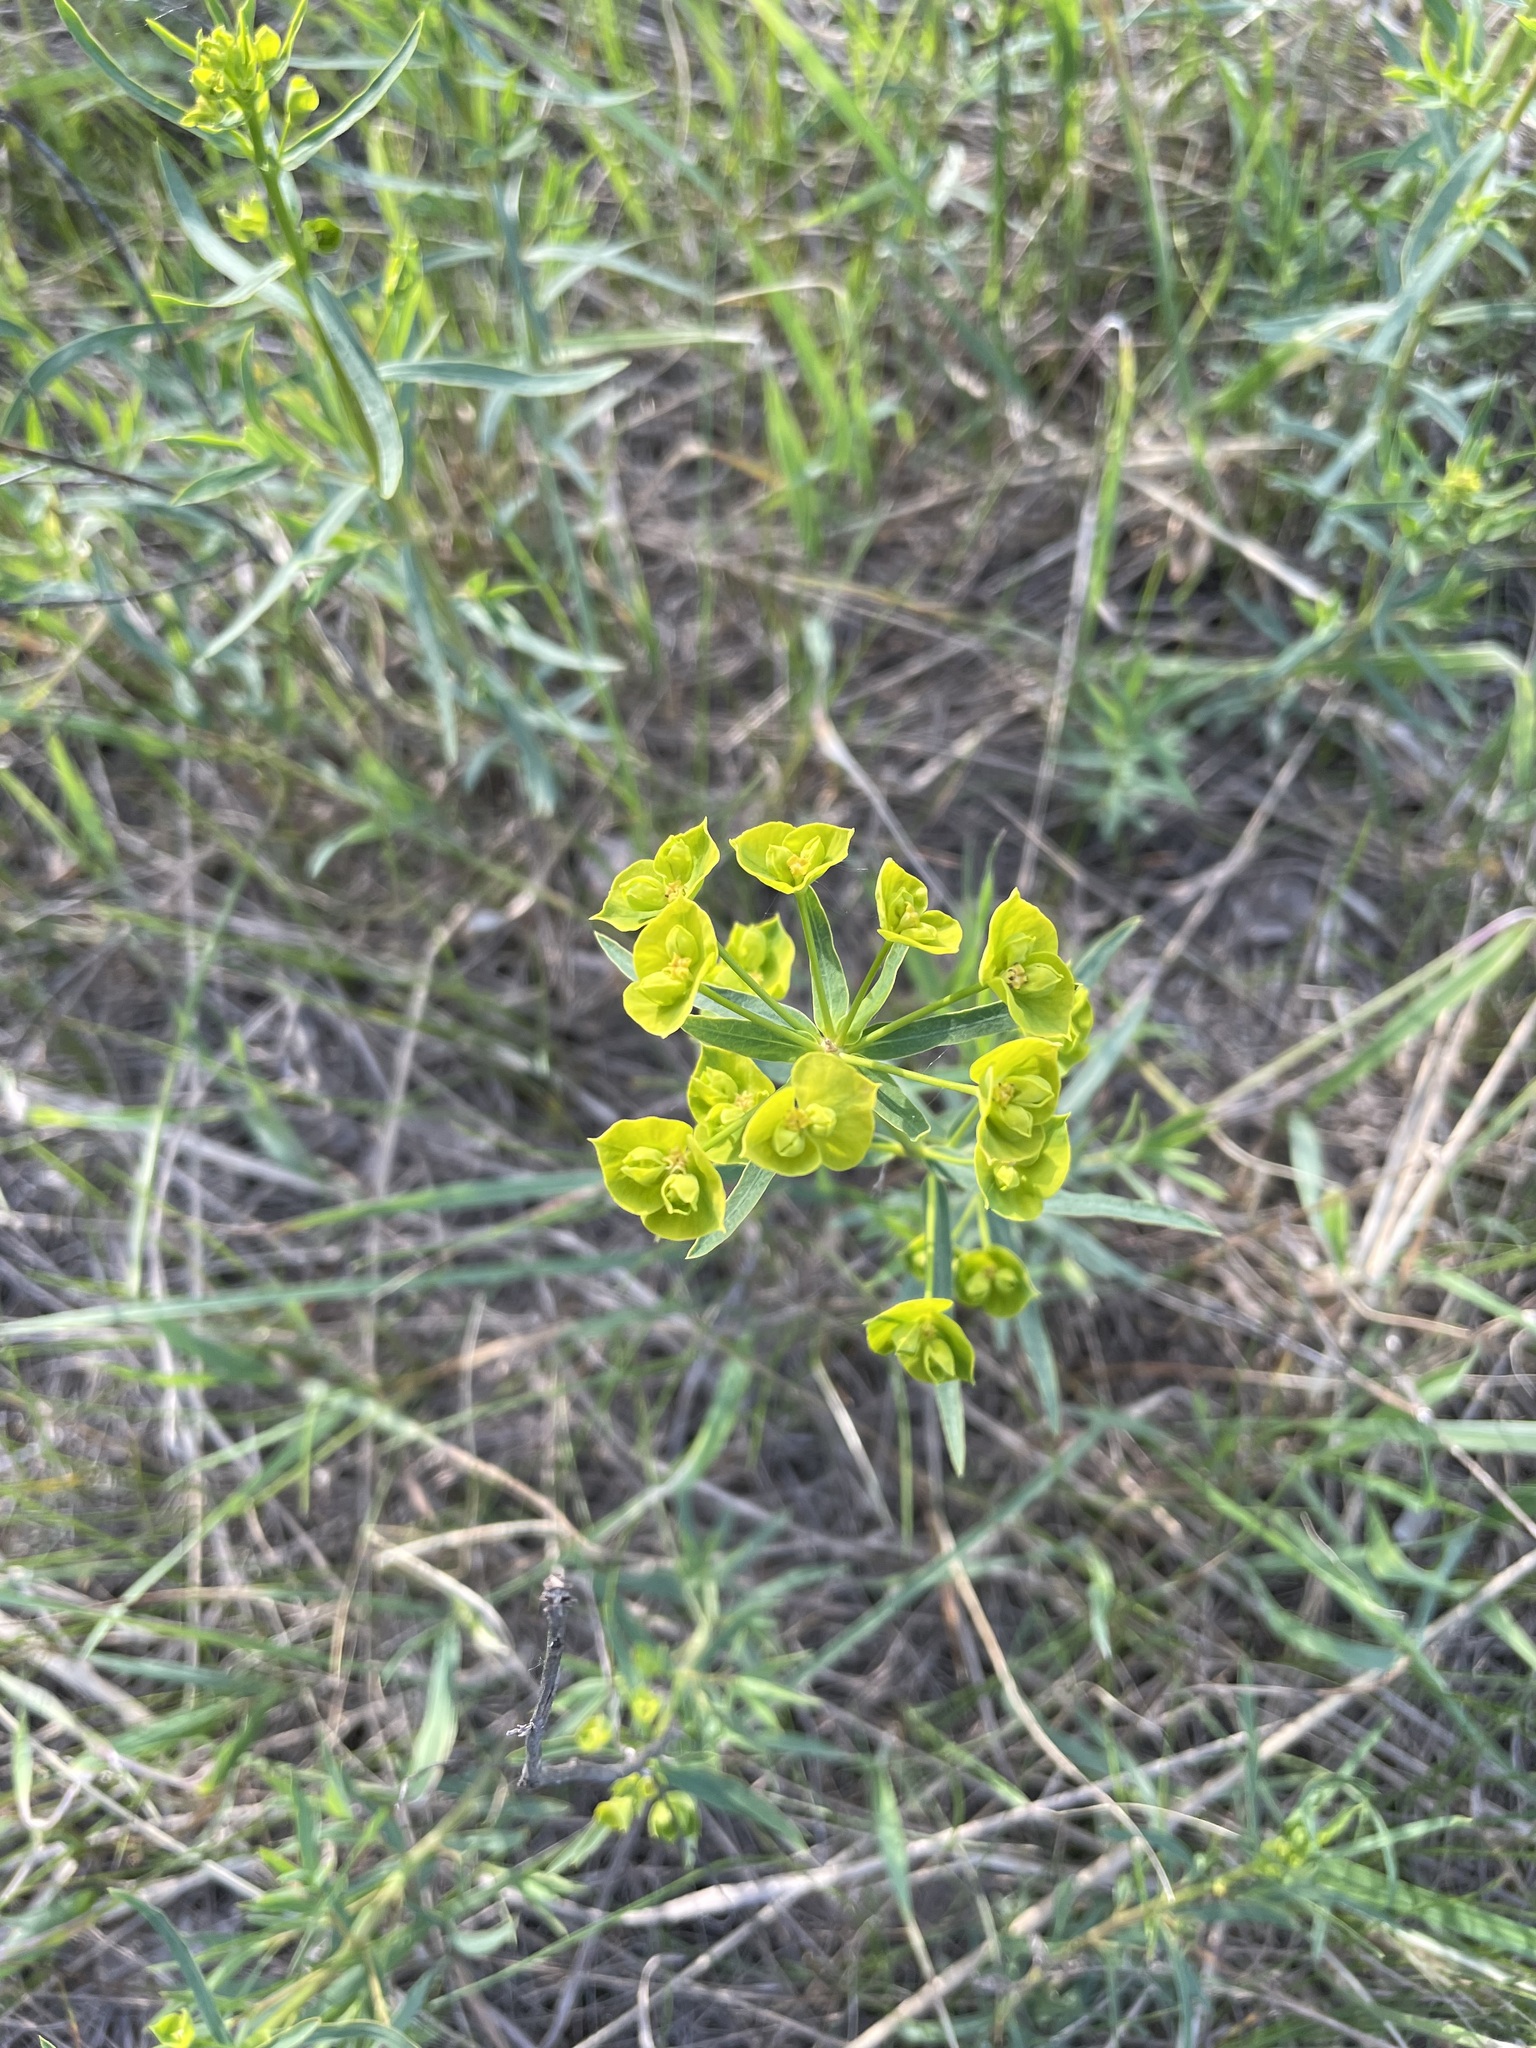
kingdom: Plantae
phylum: Tracheophyta
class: Magnoliopsida
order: Malpighiales
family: Euphorbiaceae
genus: Euphorbia
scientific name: Euphorbia virgata
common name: Leafy spurge
